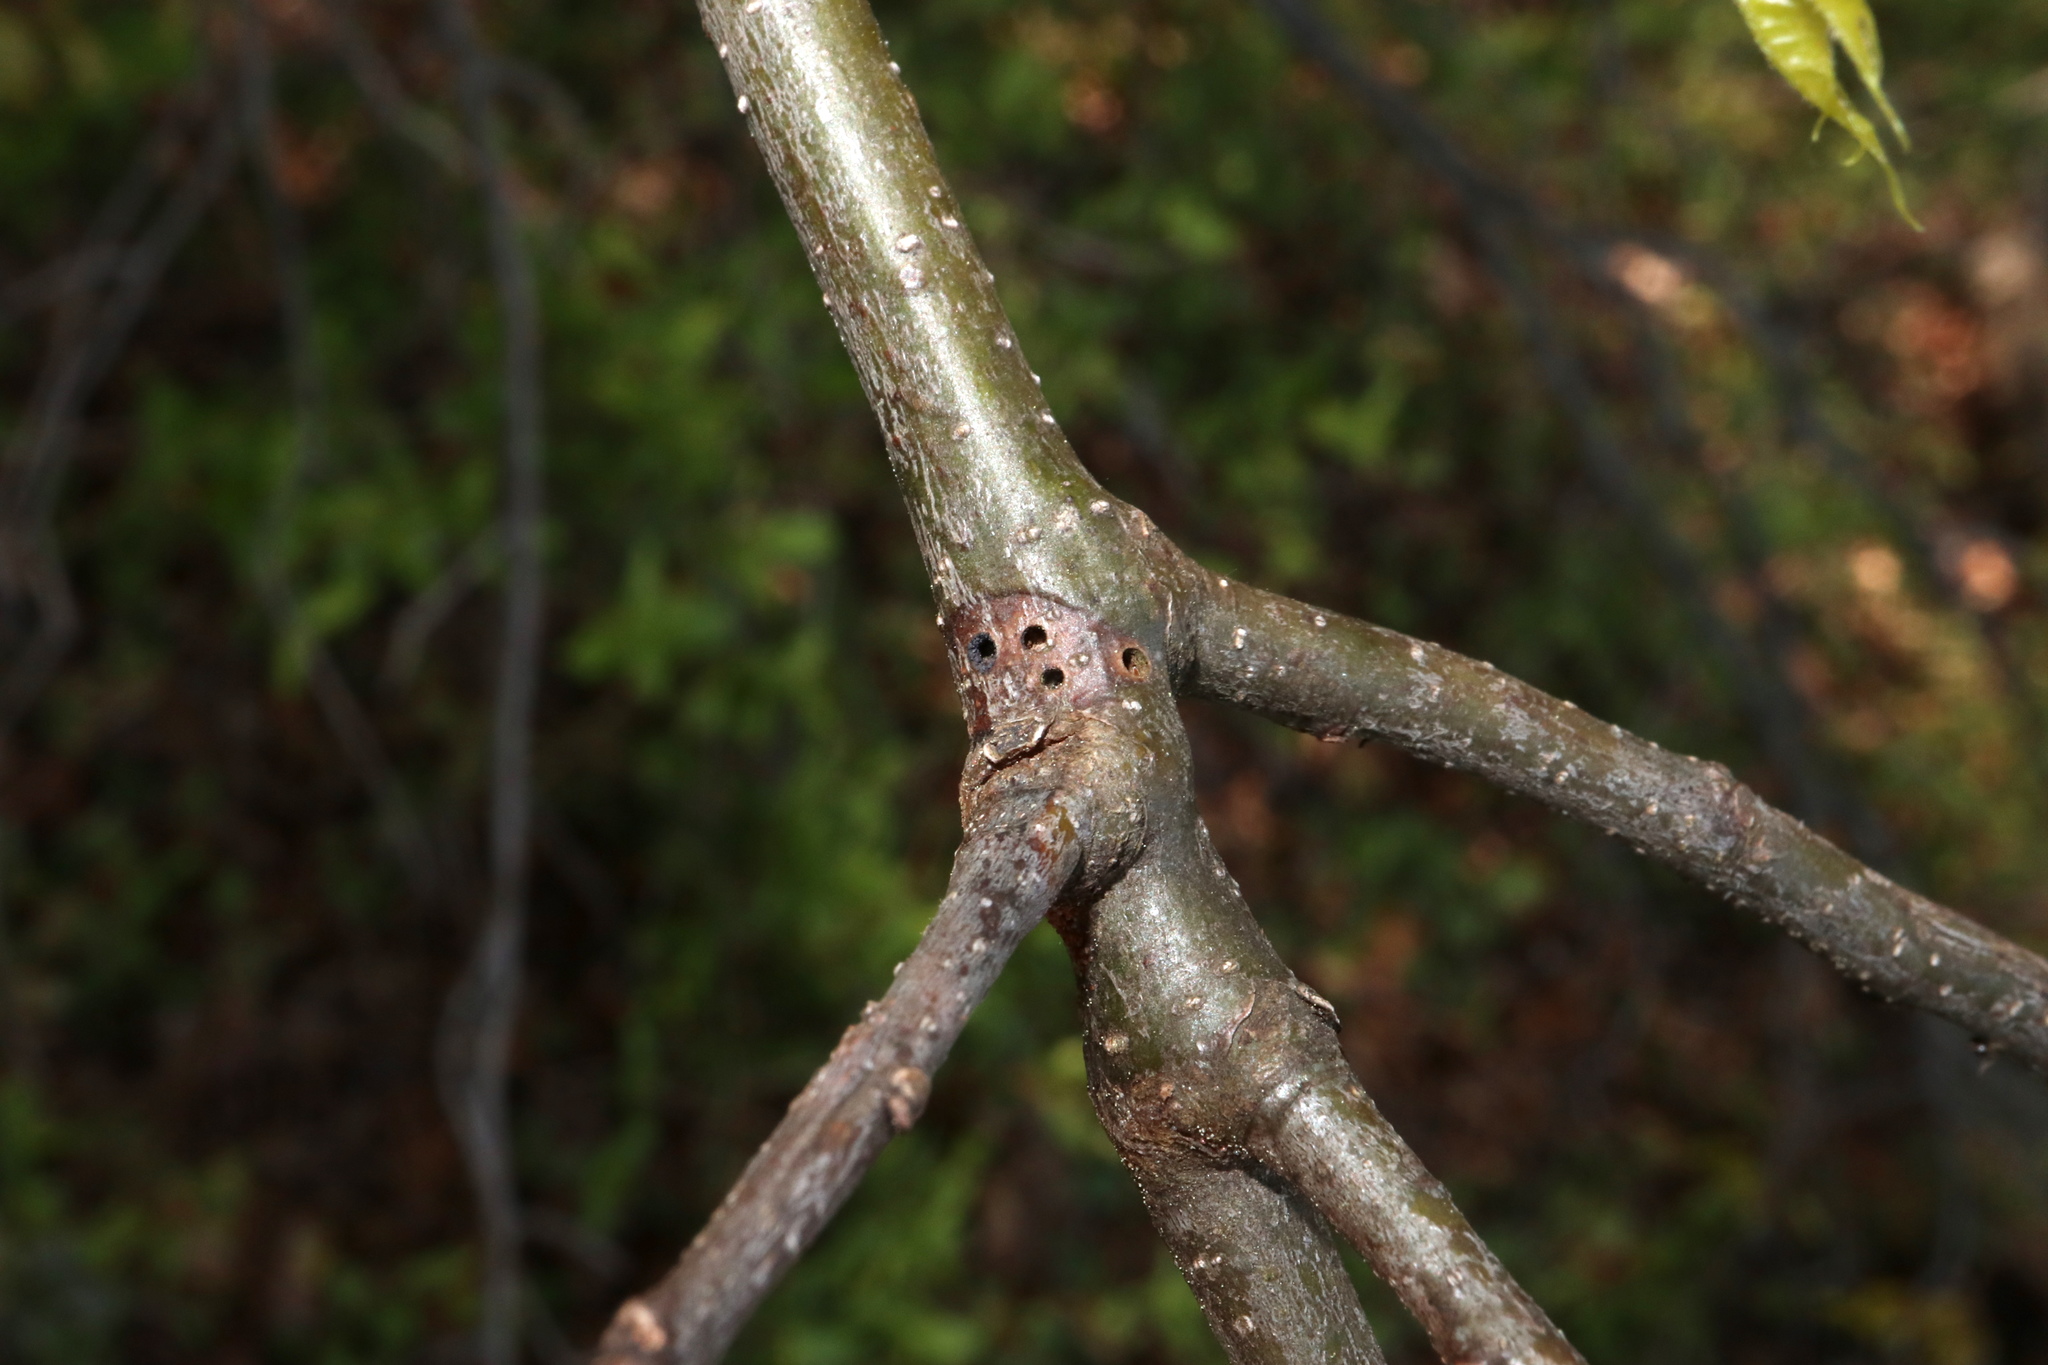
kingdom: Animalia
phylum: Arthropoda
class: Insecta
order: Hymenoptera
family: Cynipidae
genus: Zapatella
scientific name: Zapatella
